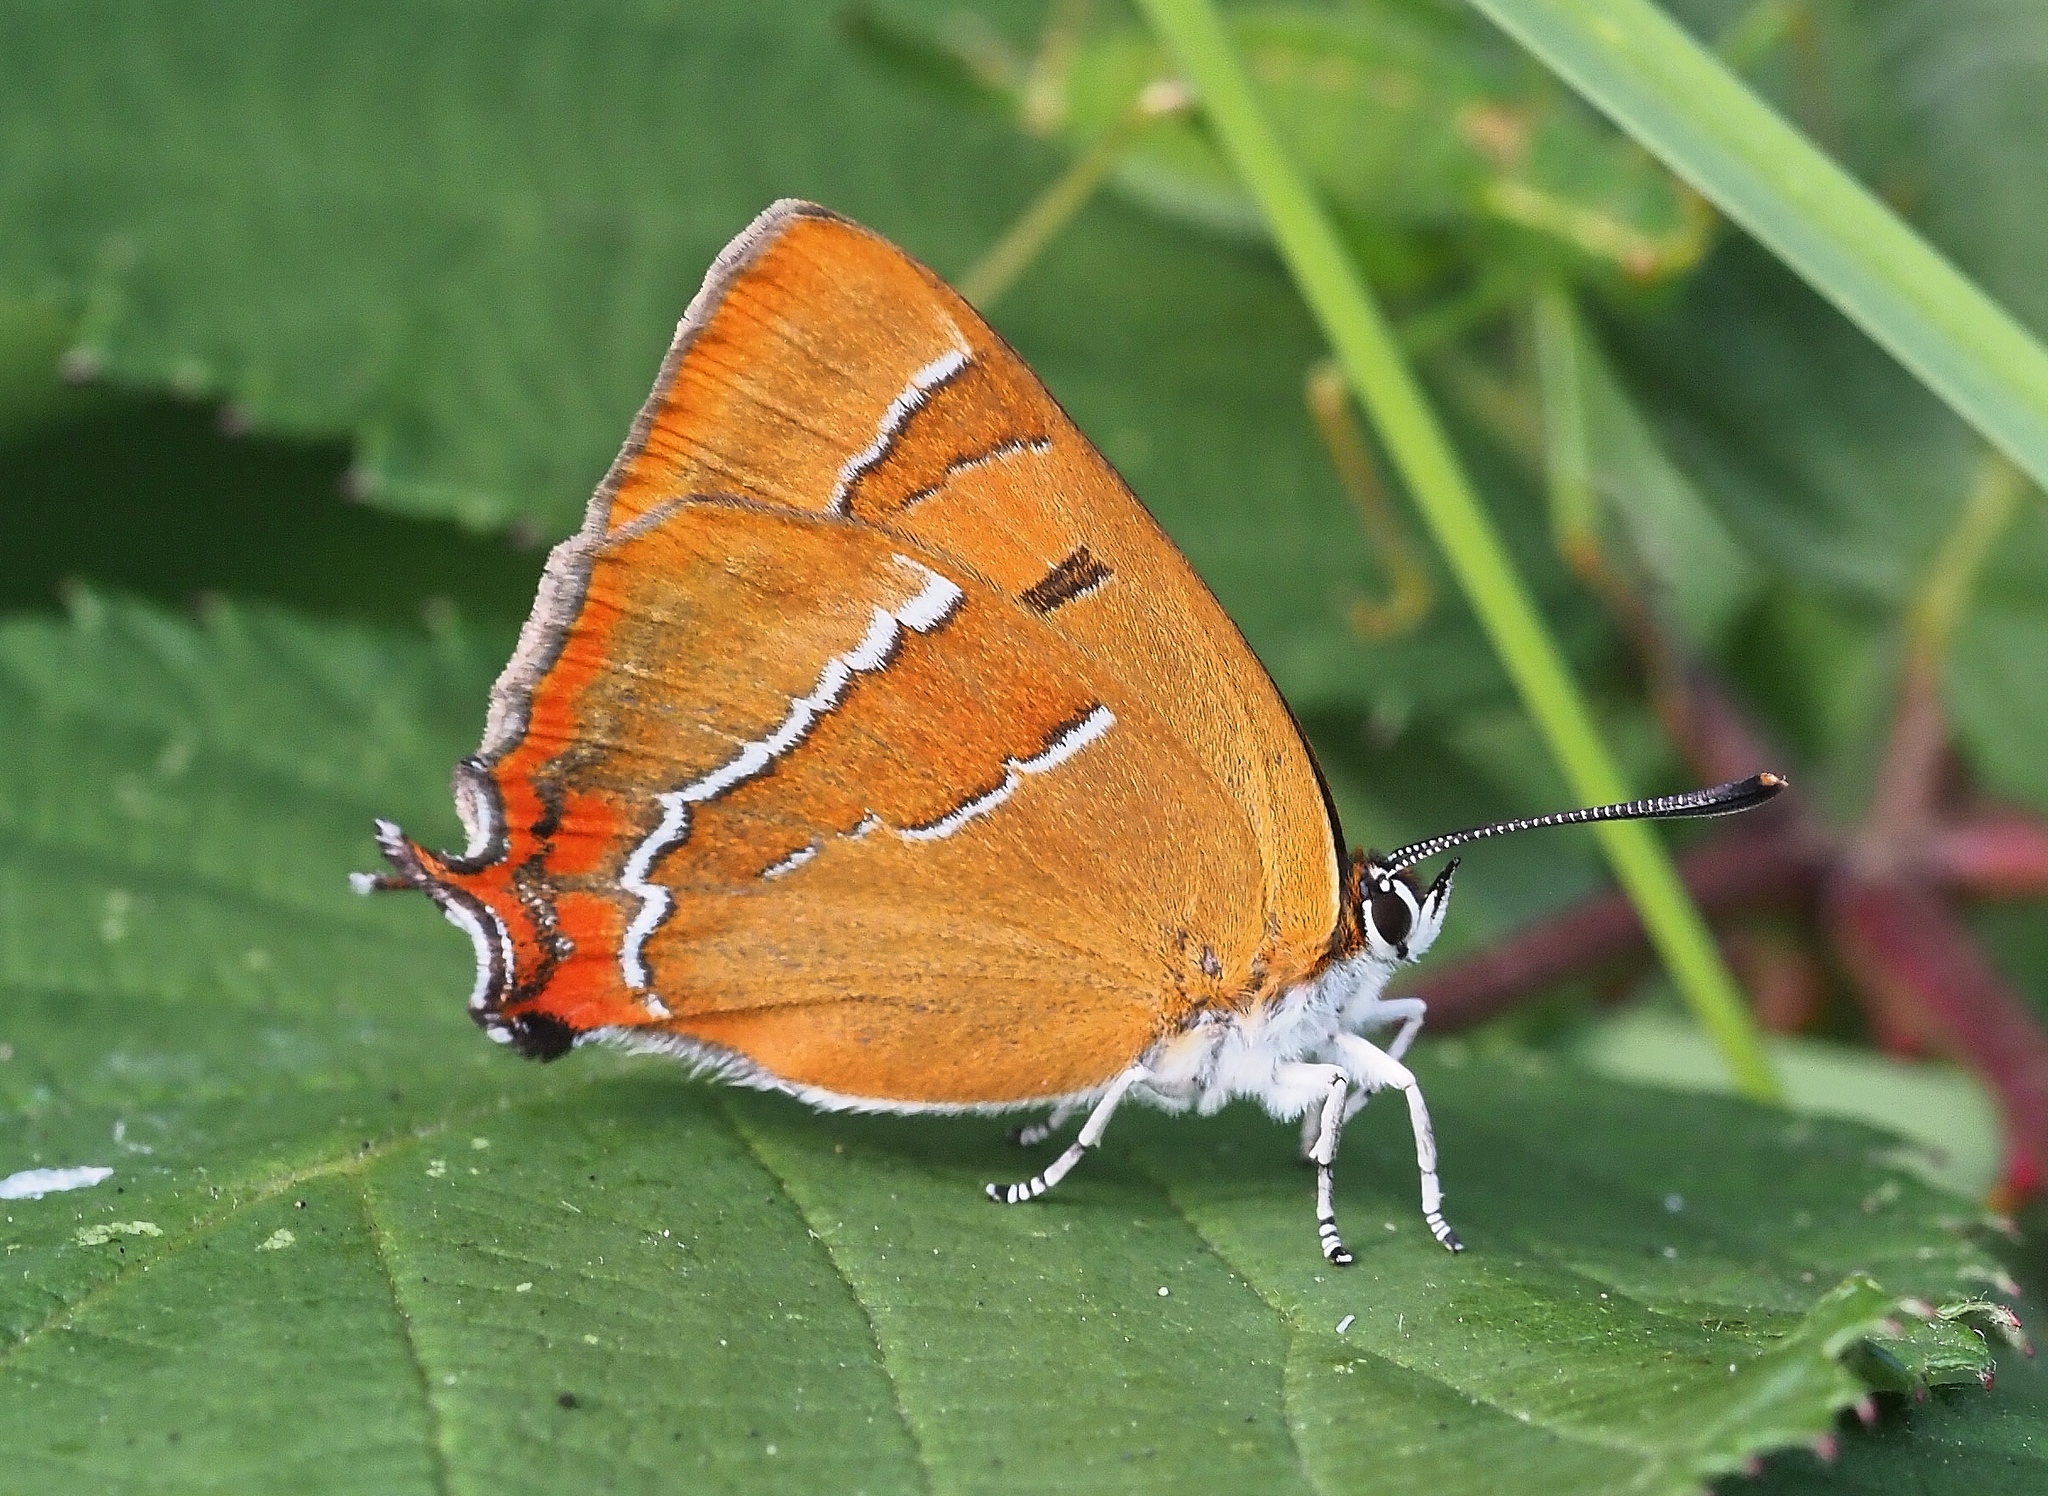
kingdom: Animalia
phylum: Arthropoda
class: Insecta
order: Lepidoptera
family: Lycaenidae
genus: Thecla
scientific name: Thecla betulae
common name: Brown hairstreak
